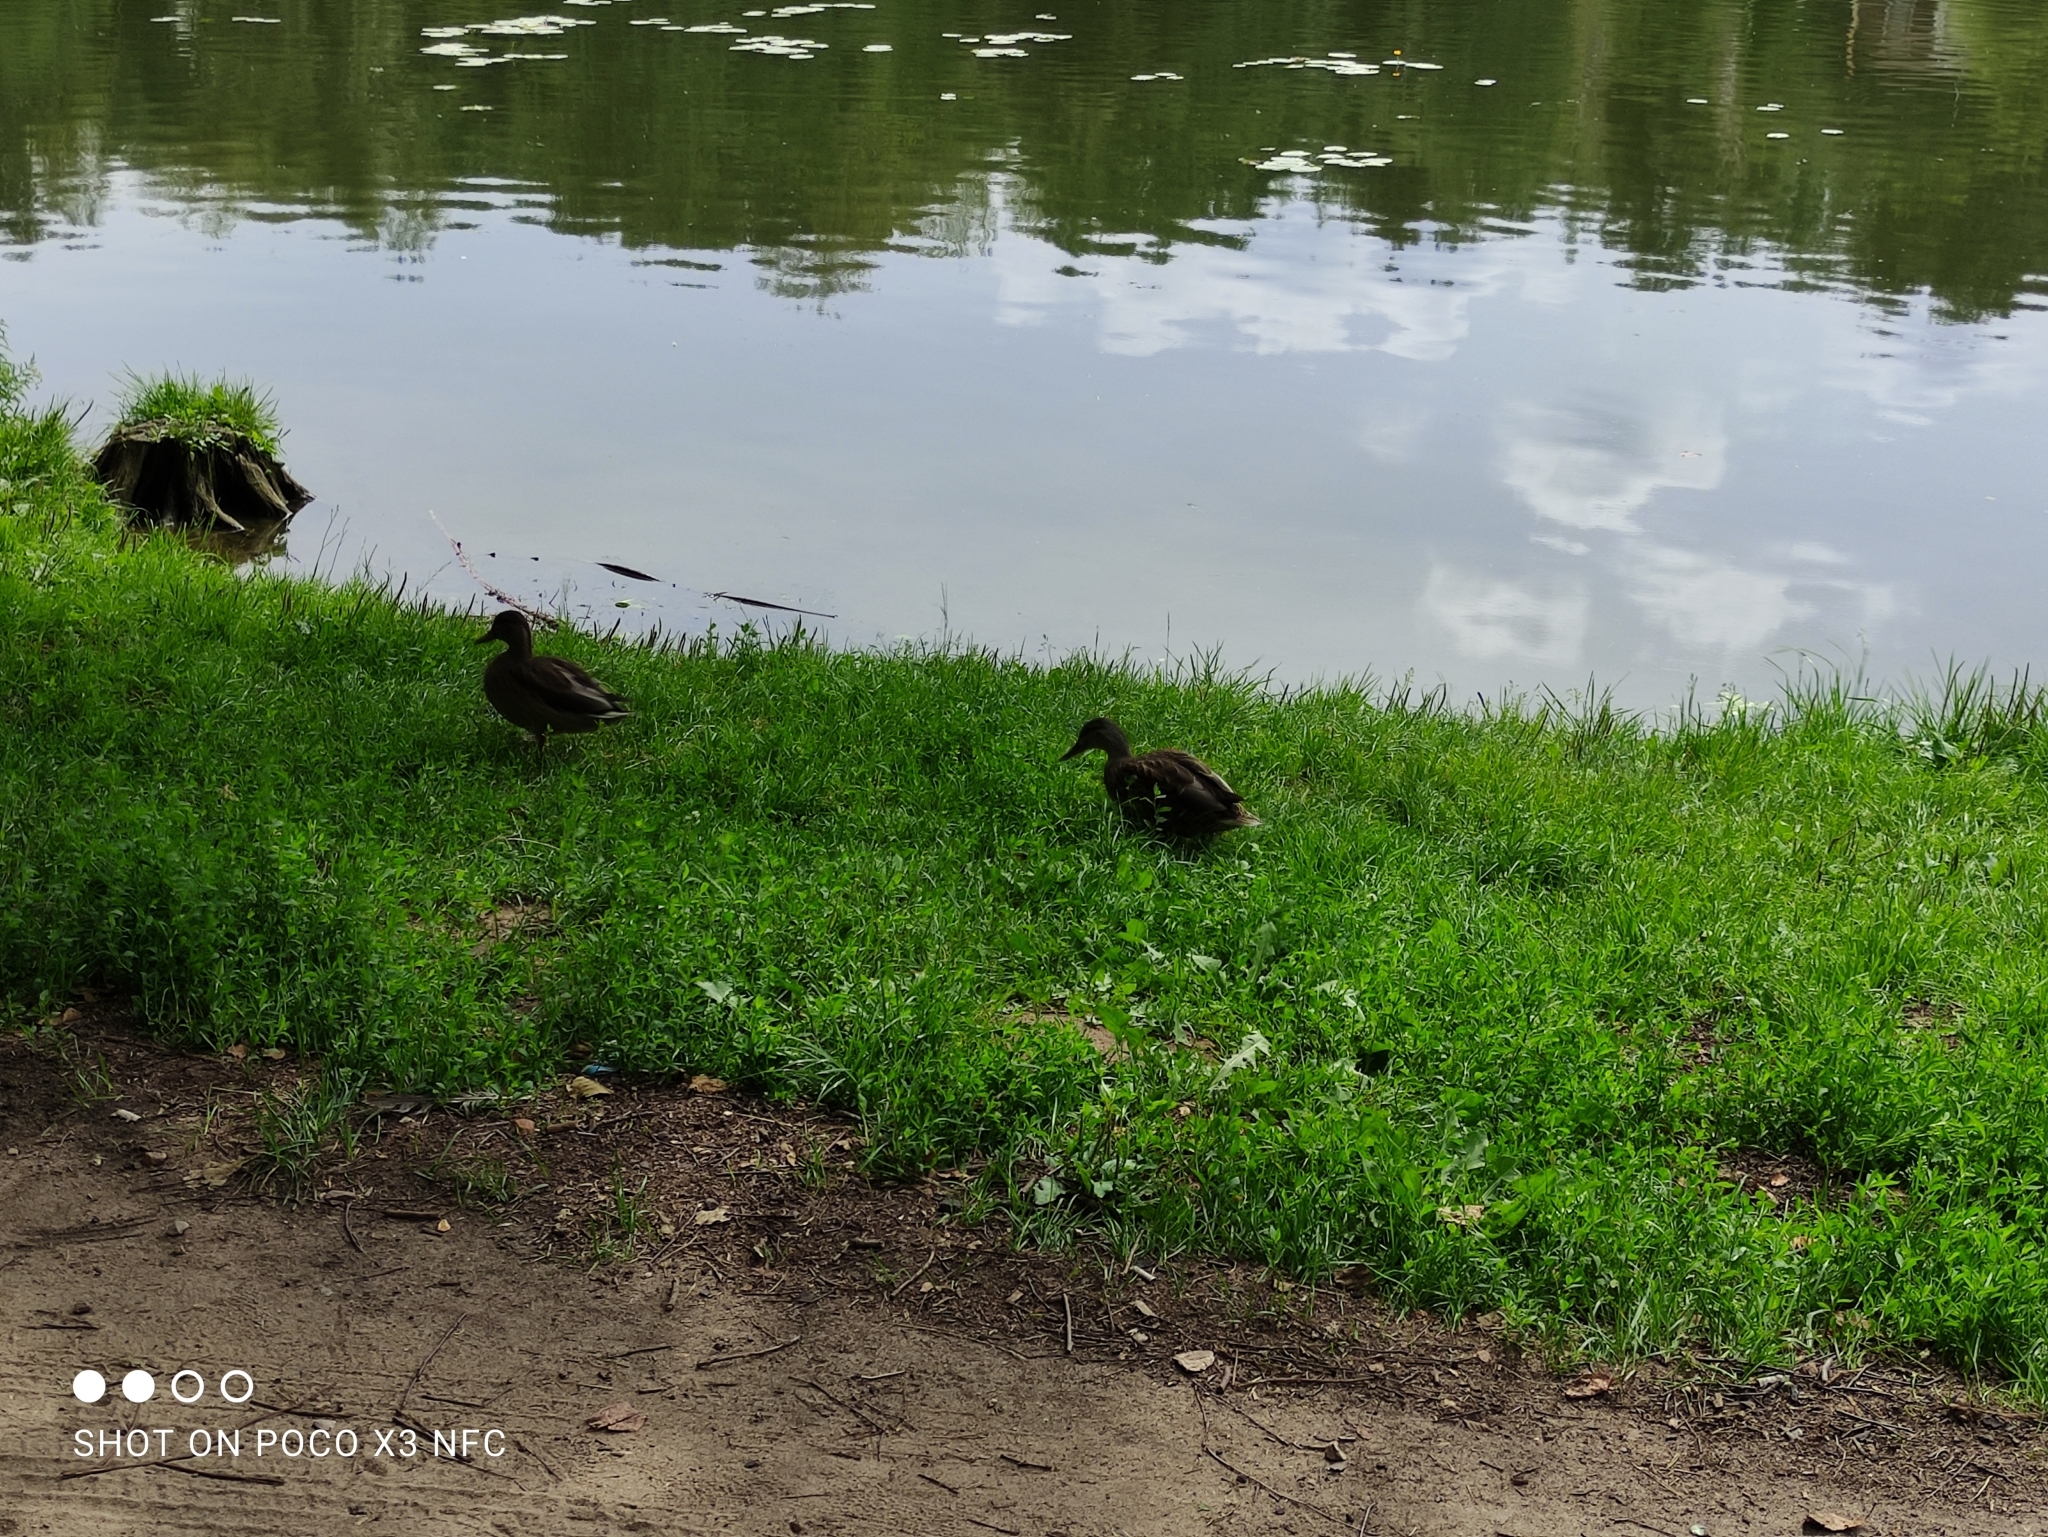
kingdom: Animalia
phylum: Chordata
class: Aves
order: Anseriformes
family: Anatidae
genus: Anas
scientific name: Anas platyrhynchos
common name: Mallard
